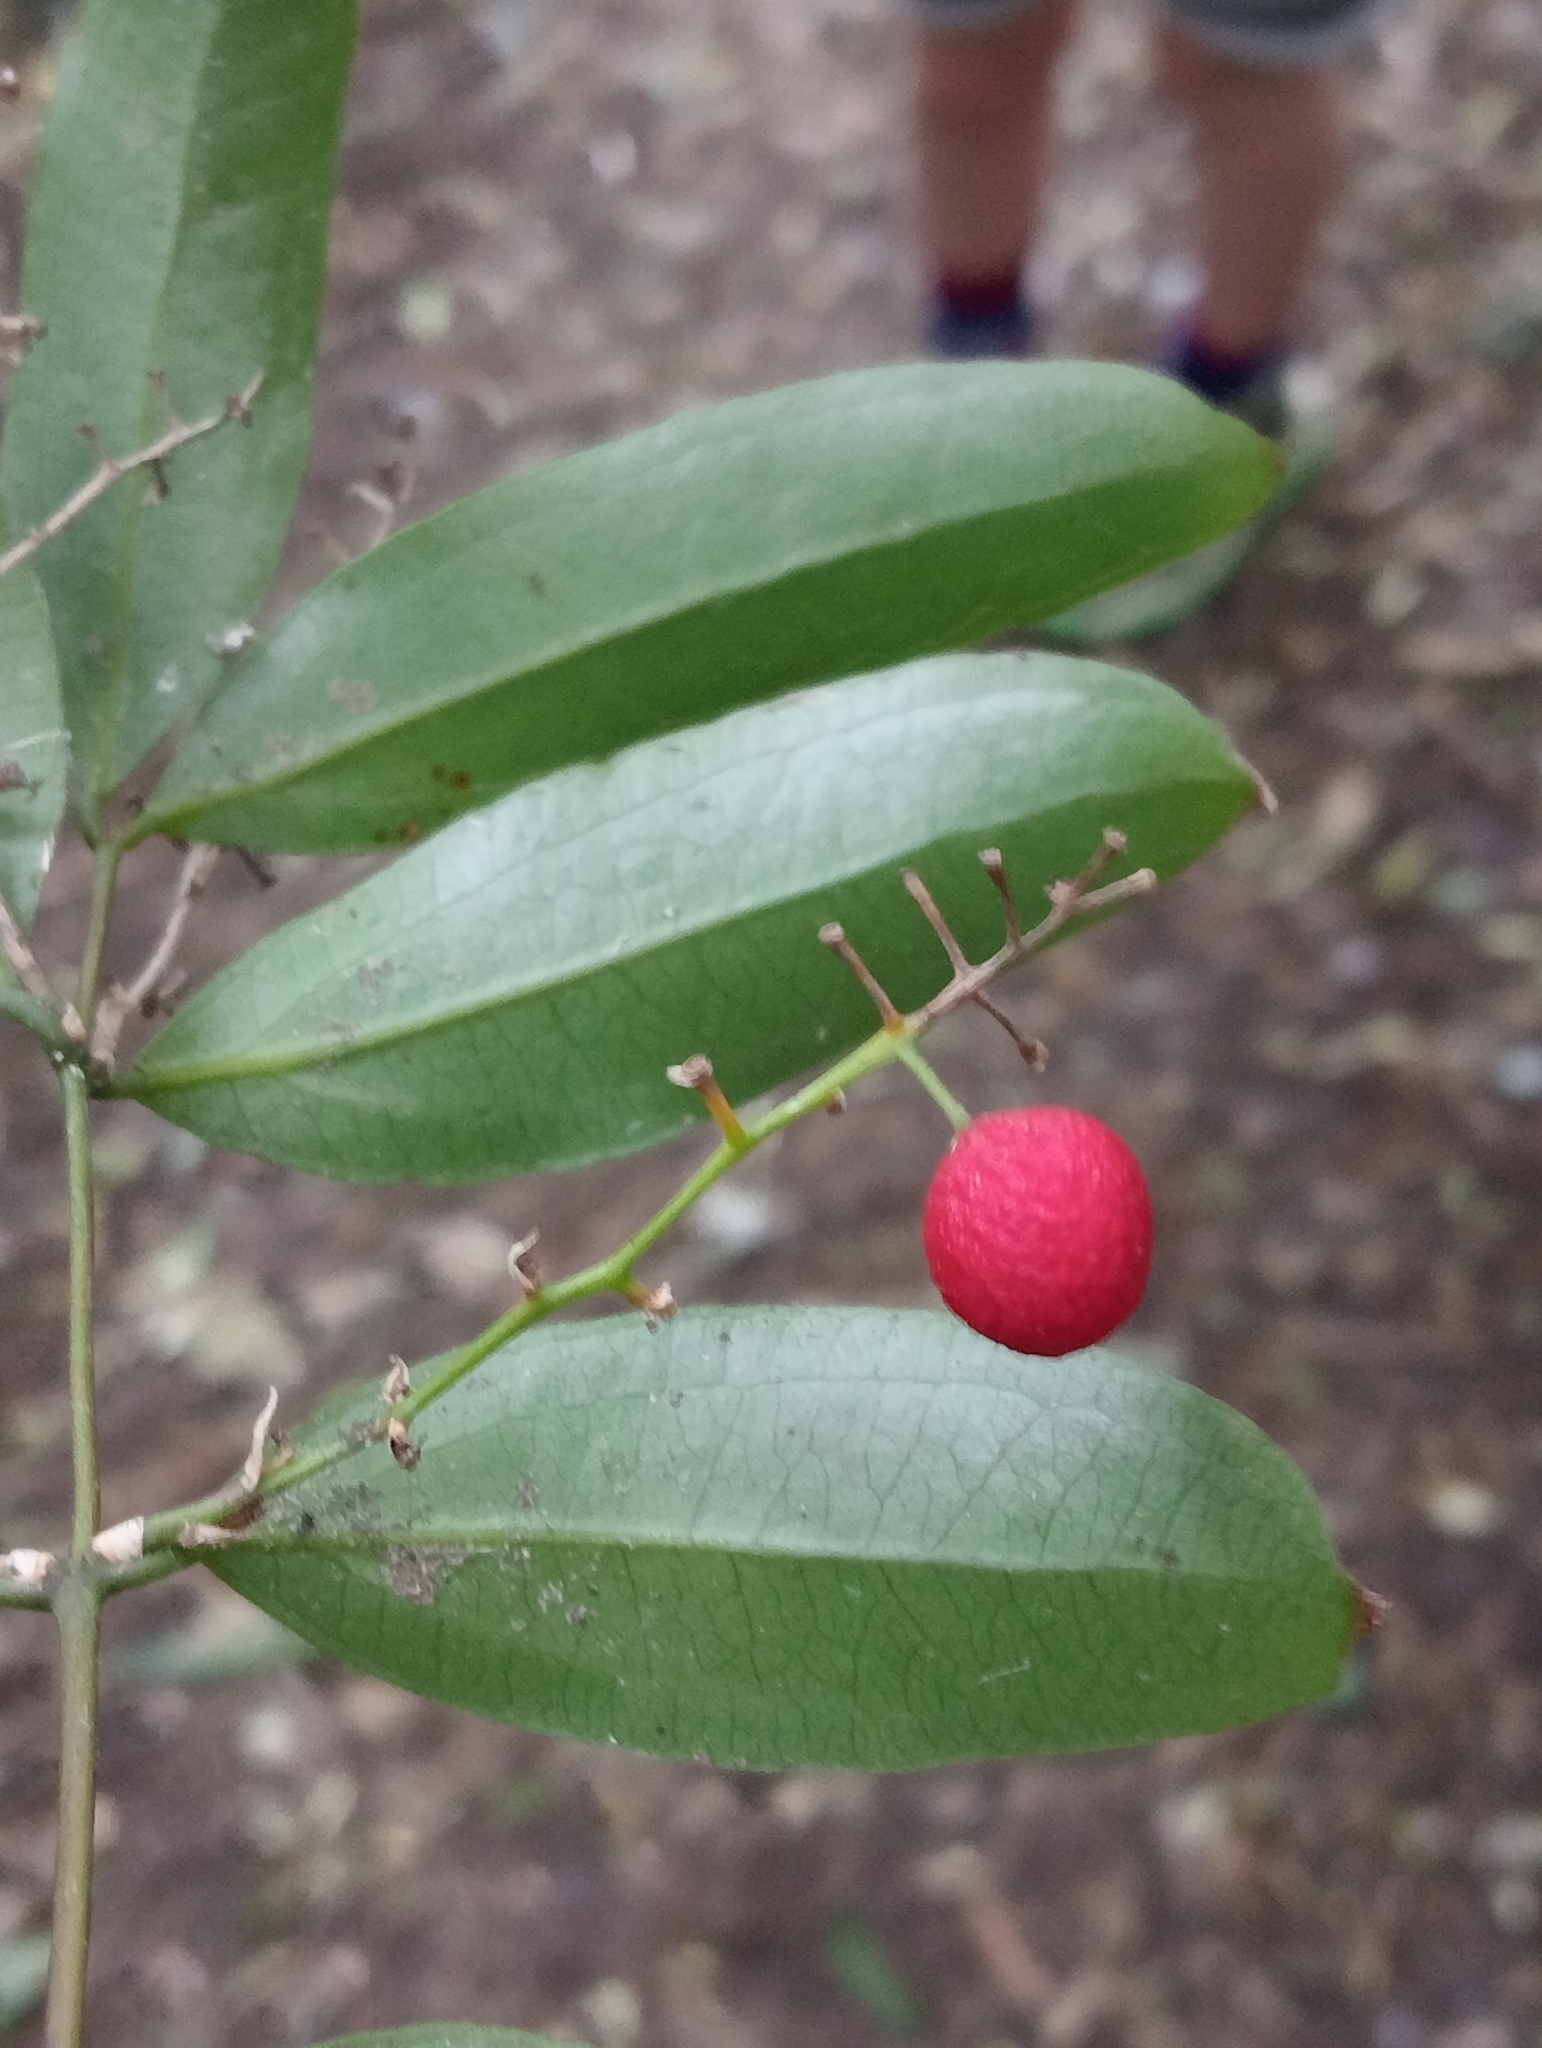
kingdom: Plantae
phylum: Tracheophyta
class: Liliopsida
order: Liliales
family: Ripogonaceae
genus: Ripogonum
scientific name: Ripogonum scandens
